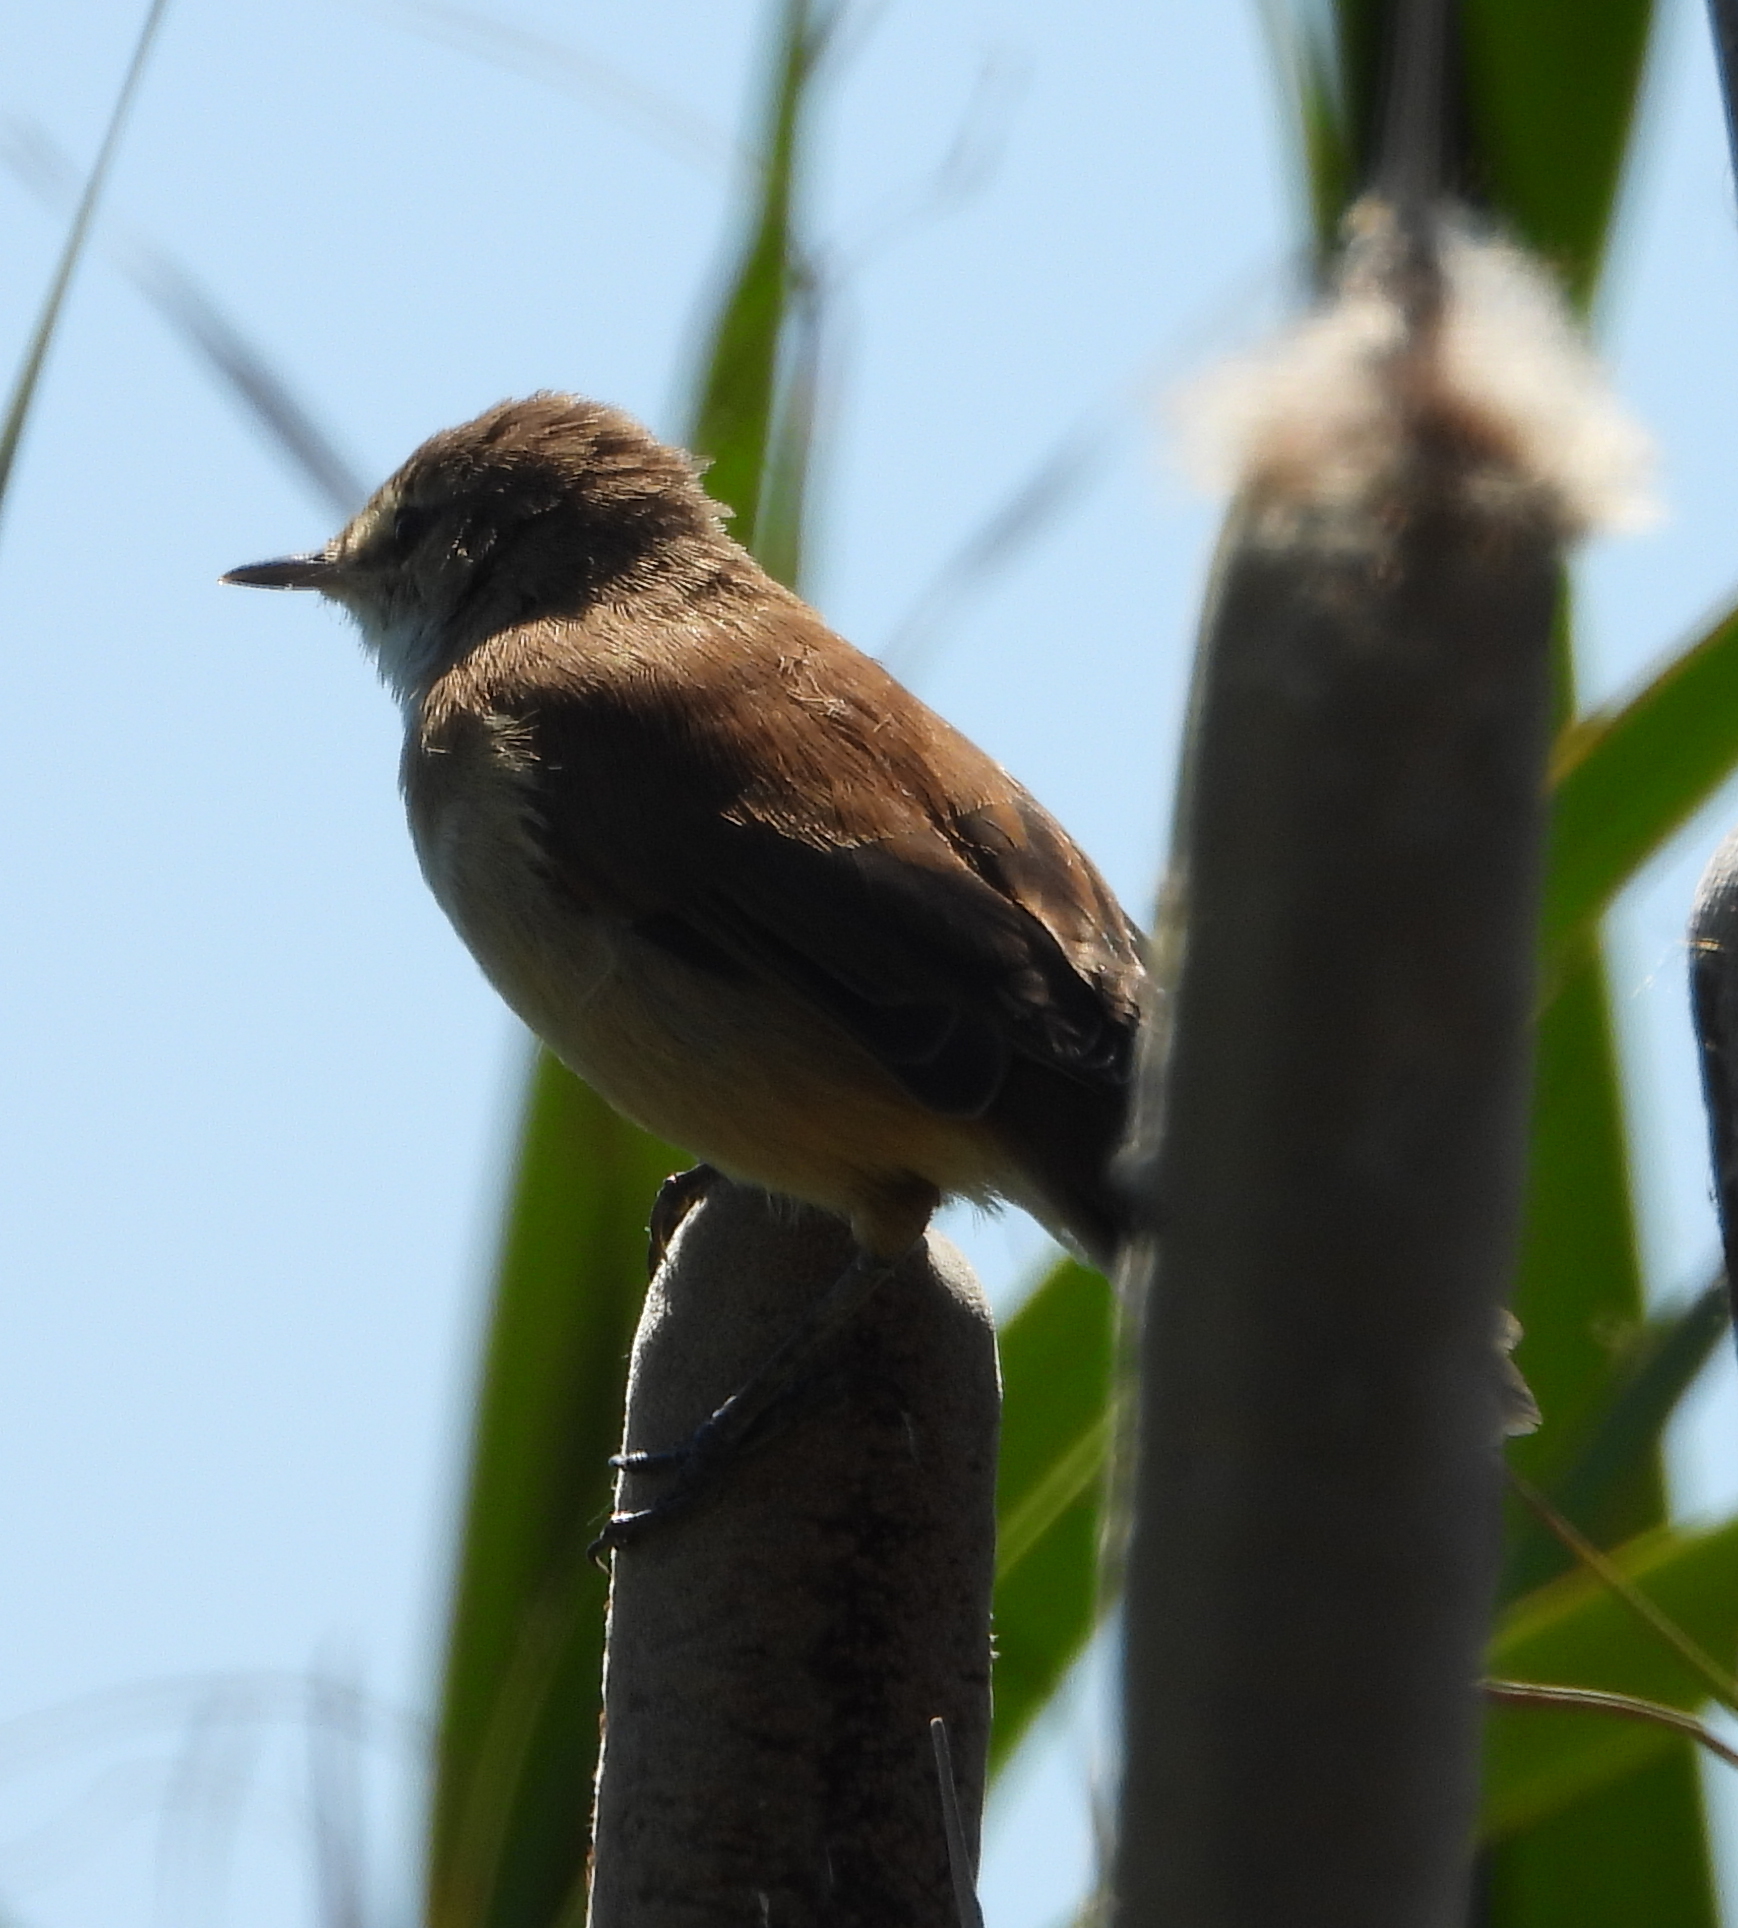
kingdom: Animalia
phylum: Chordata
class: Aves
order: Passeriformes
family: Acrocephalidae
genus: Acrocephalus
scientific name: Acrocephalus gracilirostris
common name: Lesser swamp warbler
